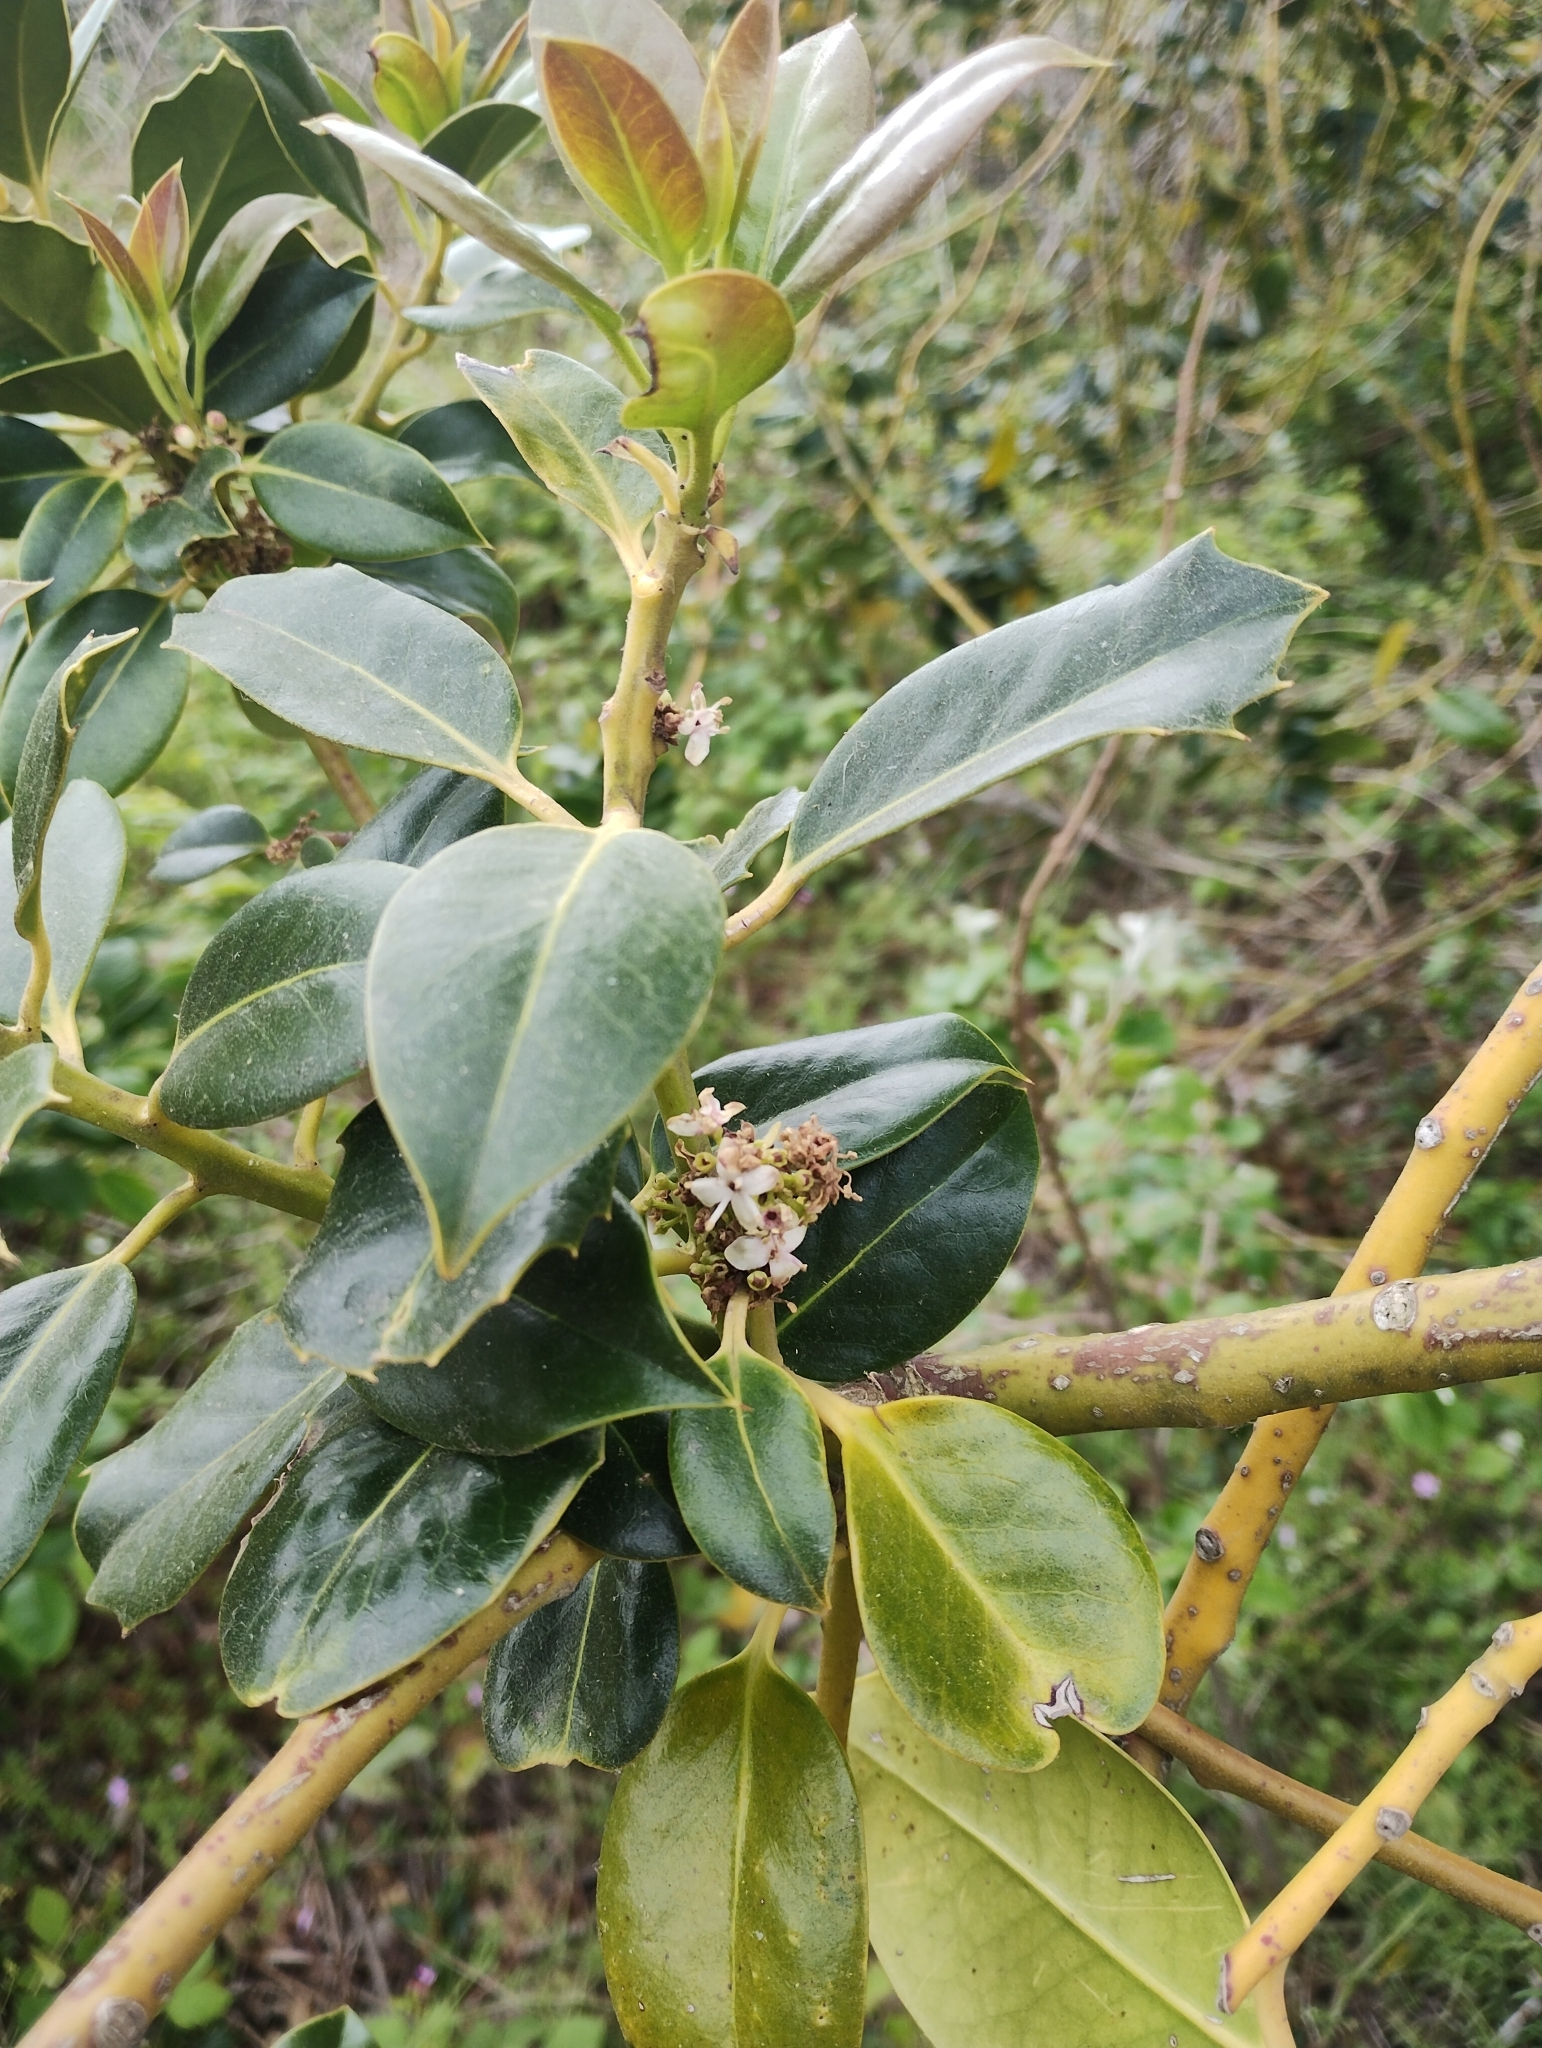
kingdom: Plantae
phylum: Tracheophyta
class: Magnoliopsida
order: Aquifoliales
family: Aquifoliaceae
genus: Ilex
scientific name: Ilex aquifolium
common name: English holly
